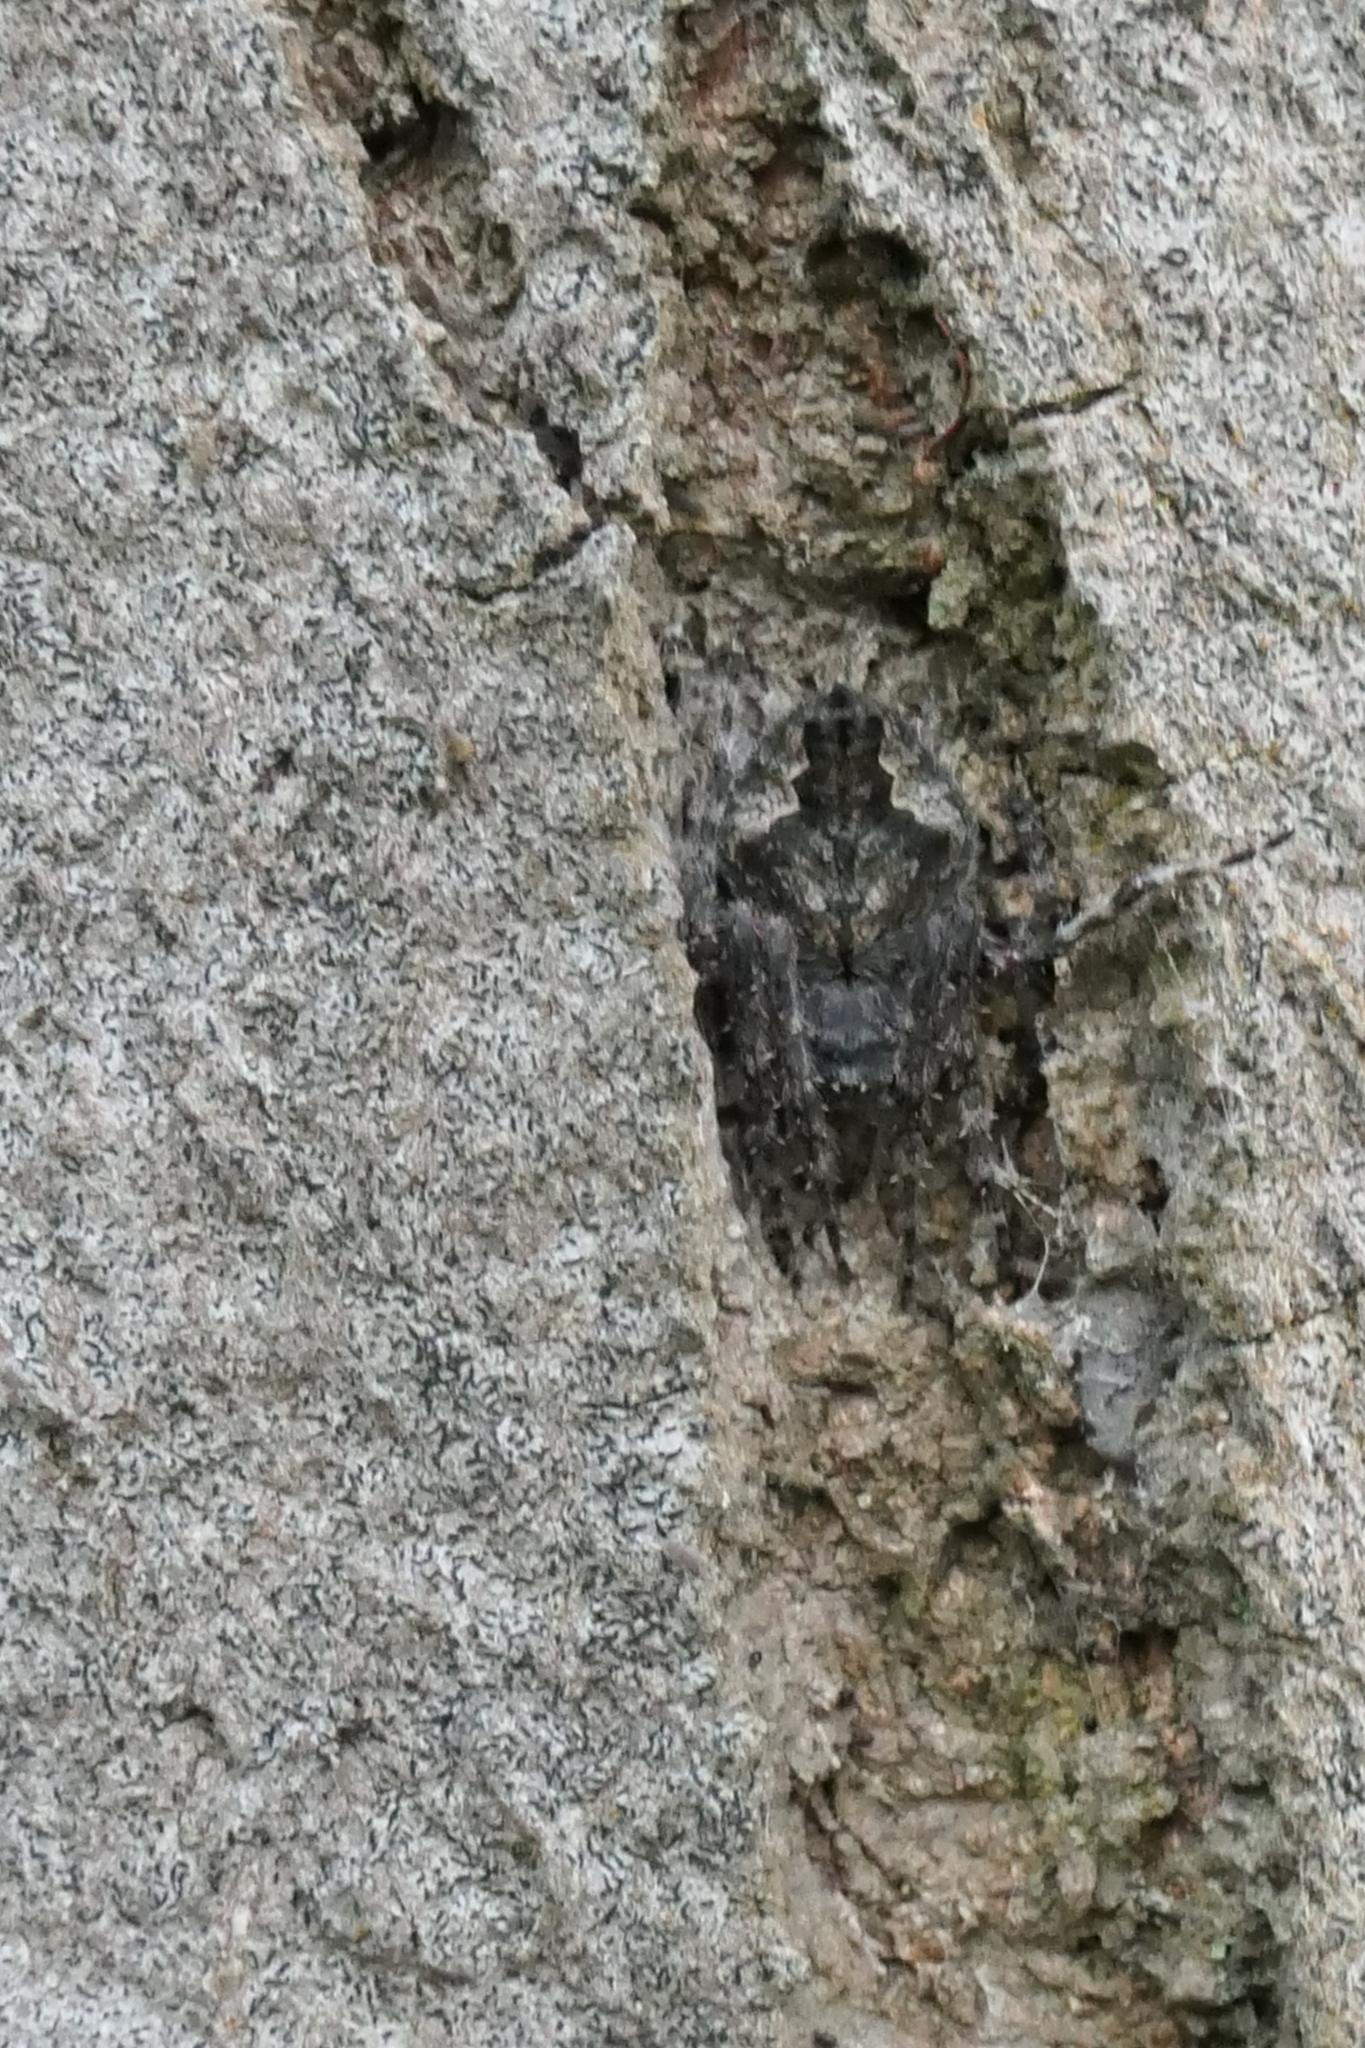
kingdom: Animalia
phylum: Arthropoda
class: Arachnida
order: Araneae
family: Araneidae
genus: Eriophora
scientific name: Eriophora pustulosa
